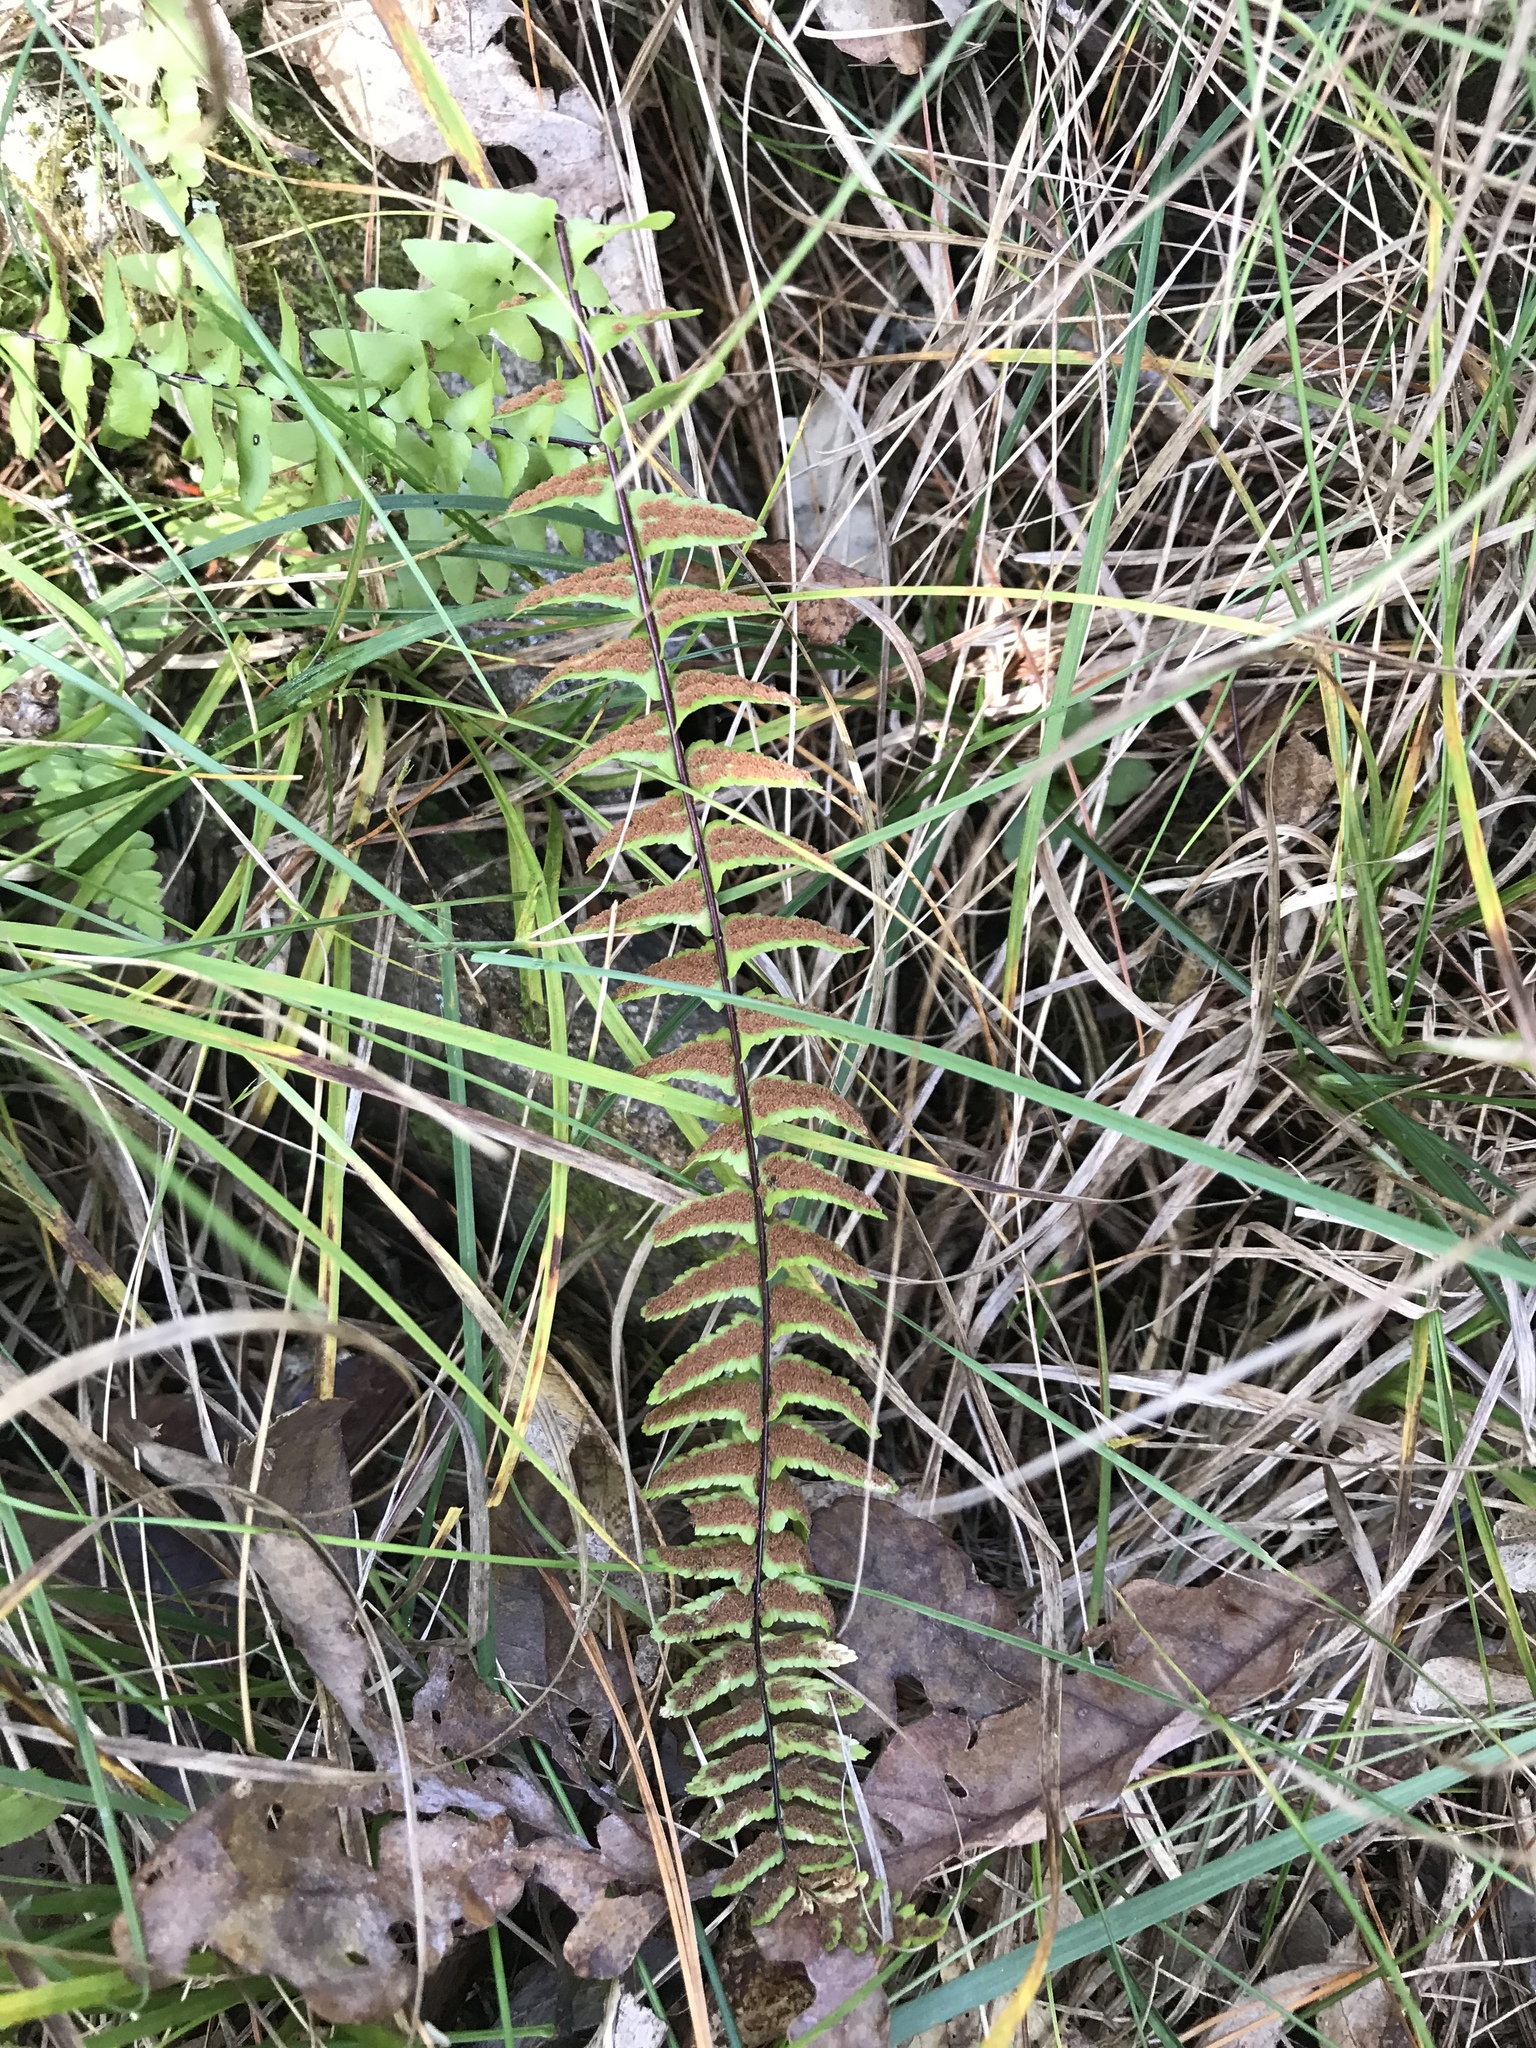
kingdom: Plantae
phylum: Tracheophyta
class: Polypodiopsida
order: Polypodiales
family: Aspleniaceae
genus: Asplenium
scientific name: Asplenium platyneuron
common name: Ebony spleenwort
